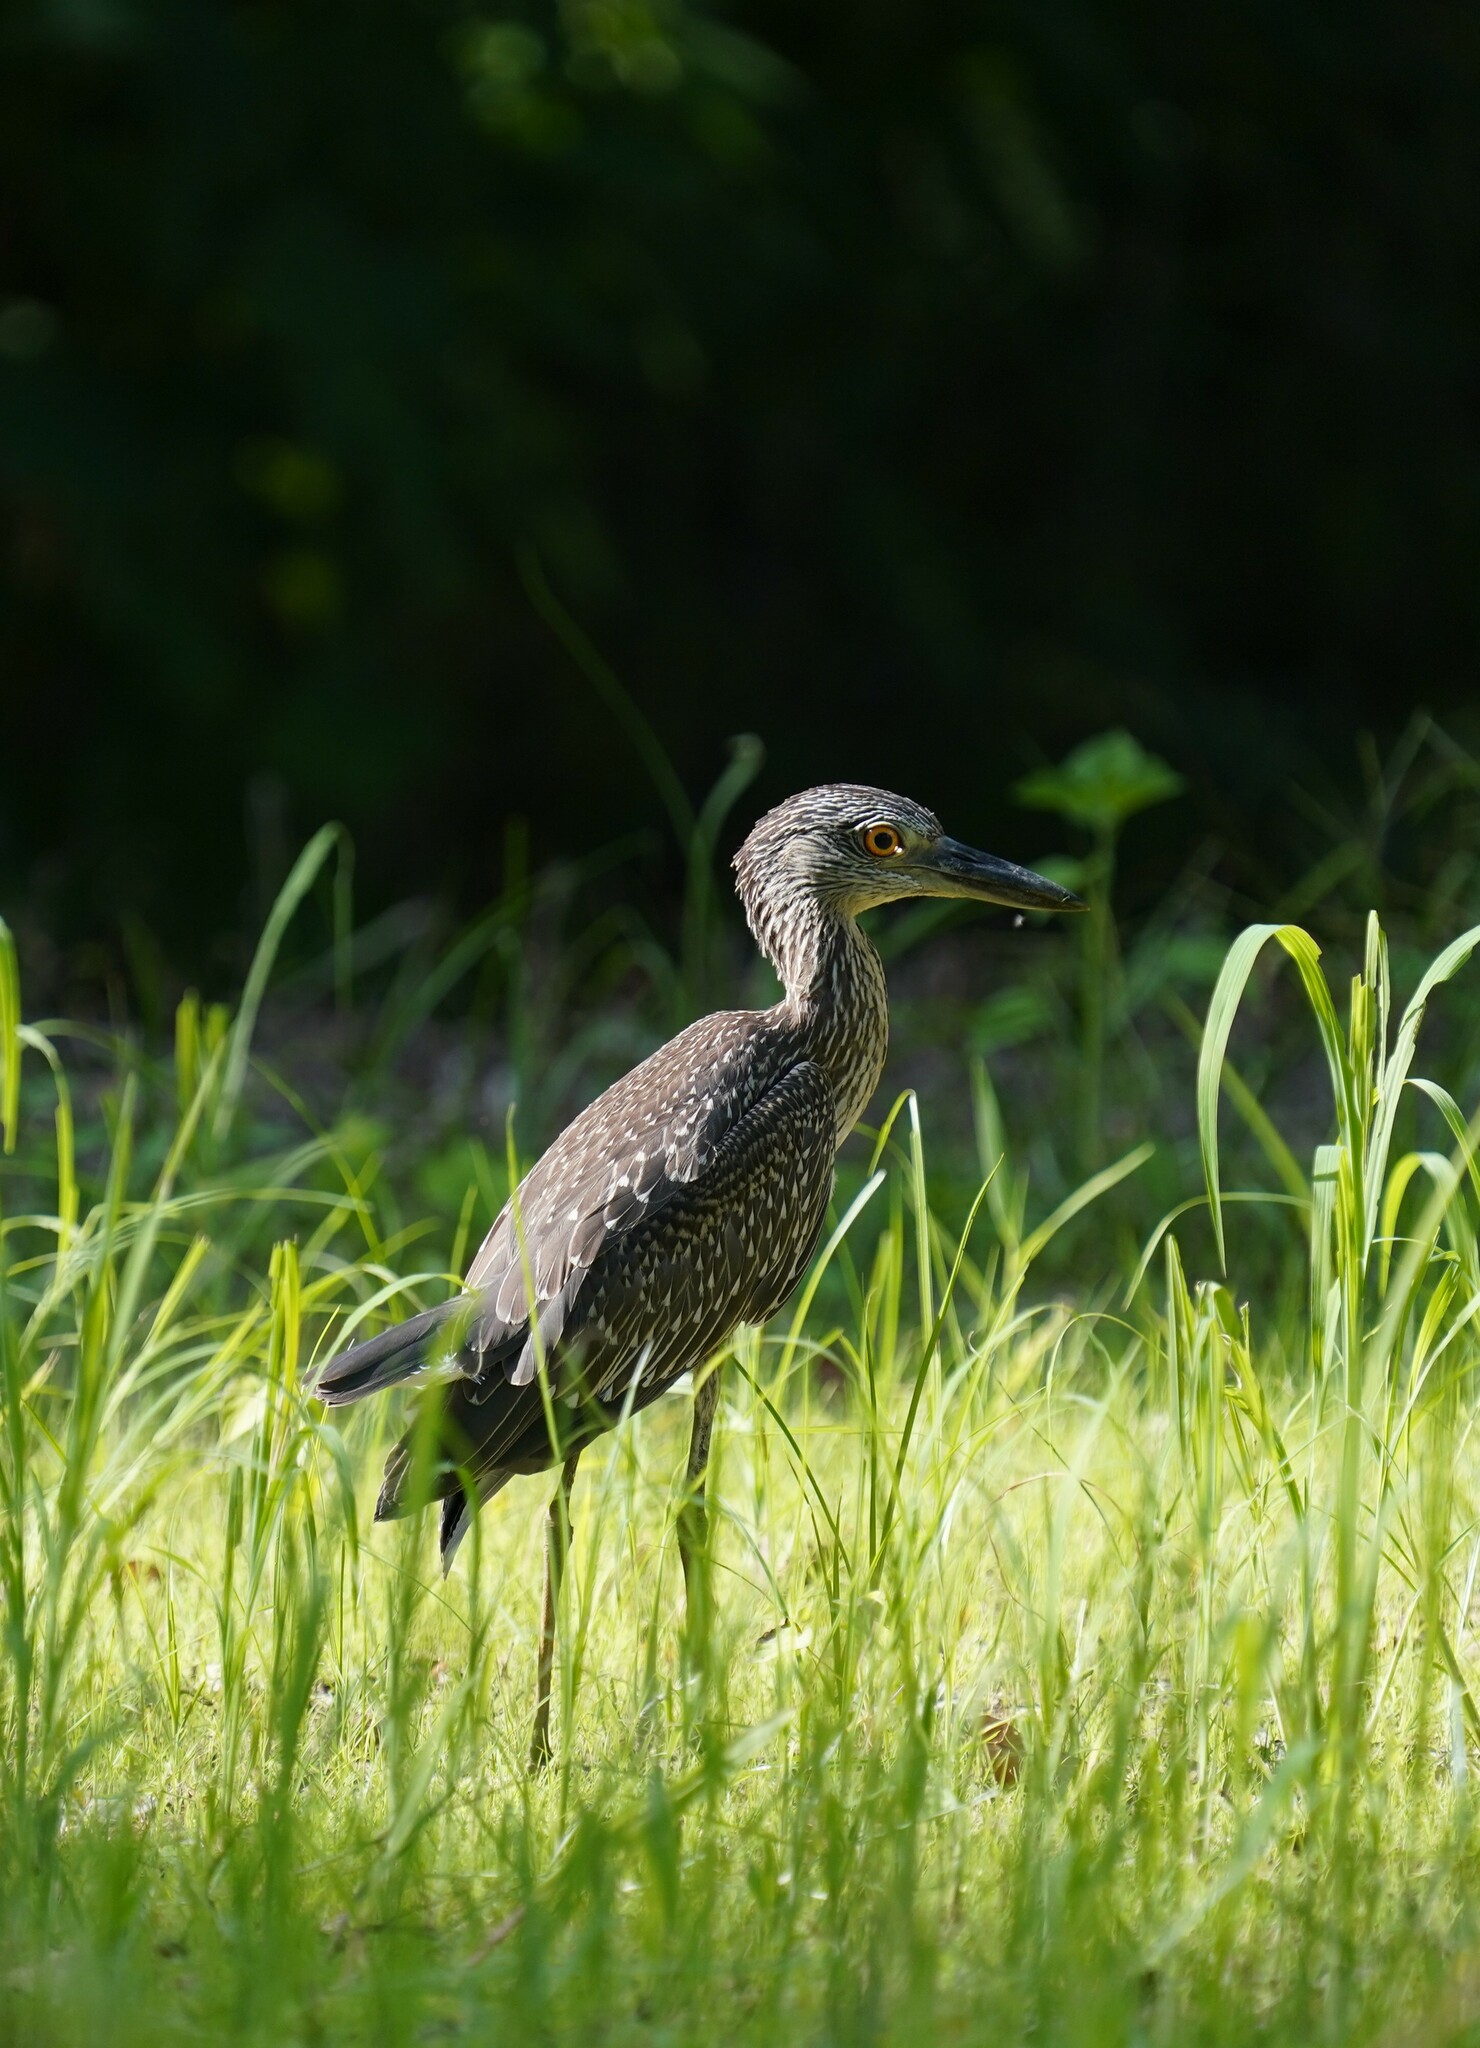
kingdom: Animalia
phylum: Chordata
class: Aves
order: Pelecaniformes
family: Ardeidae
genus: Nyctanassa
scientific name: Nyctanassa violacea
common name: Yellow-crowned night heron
